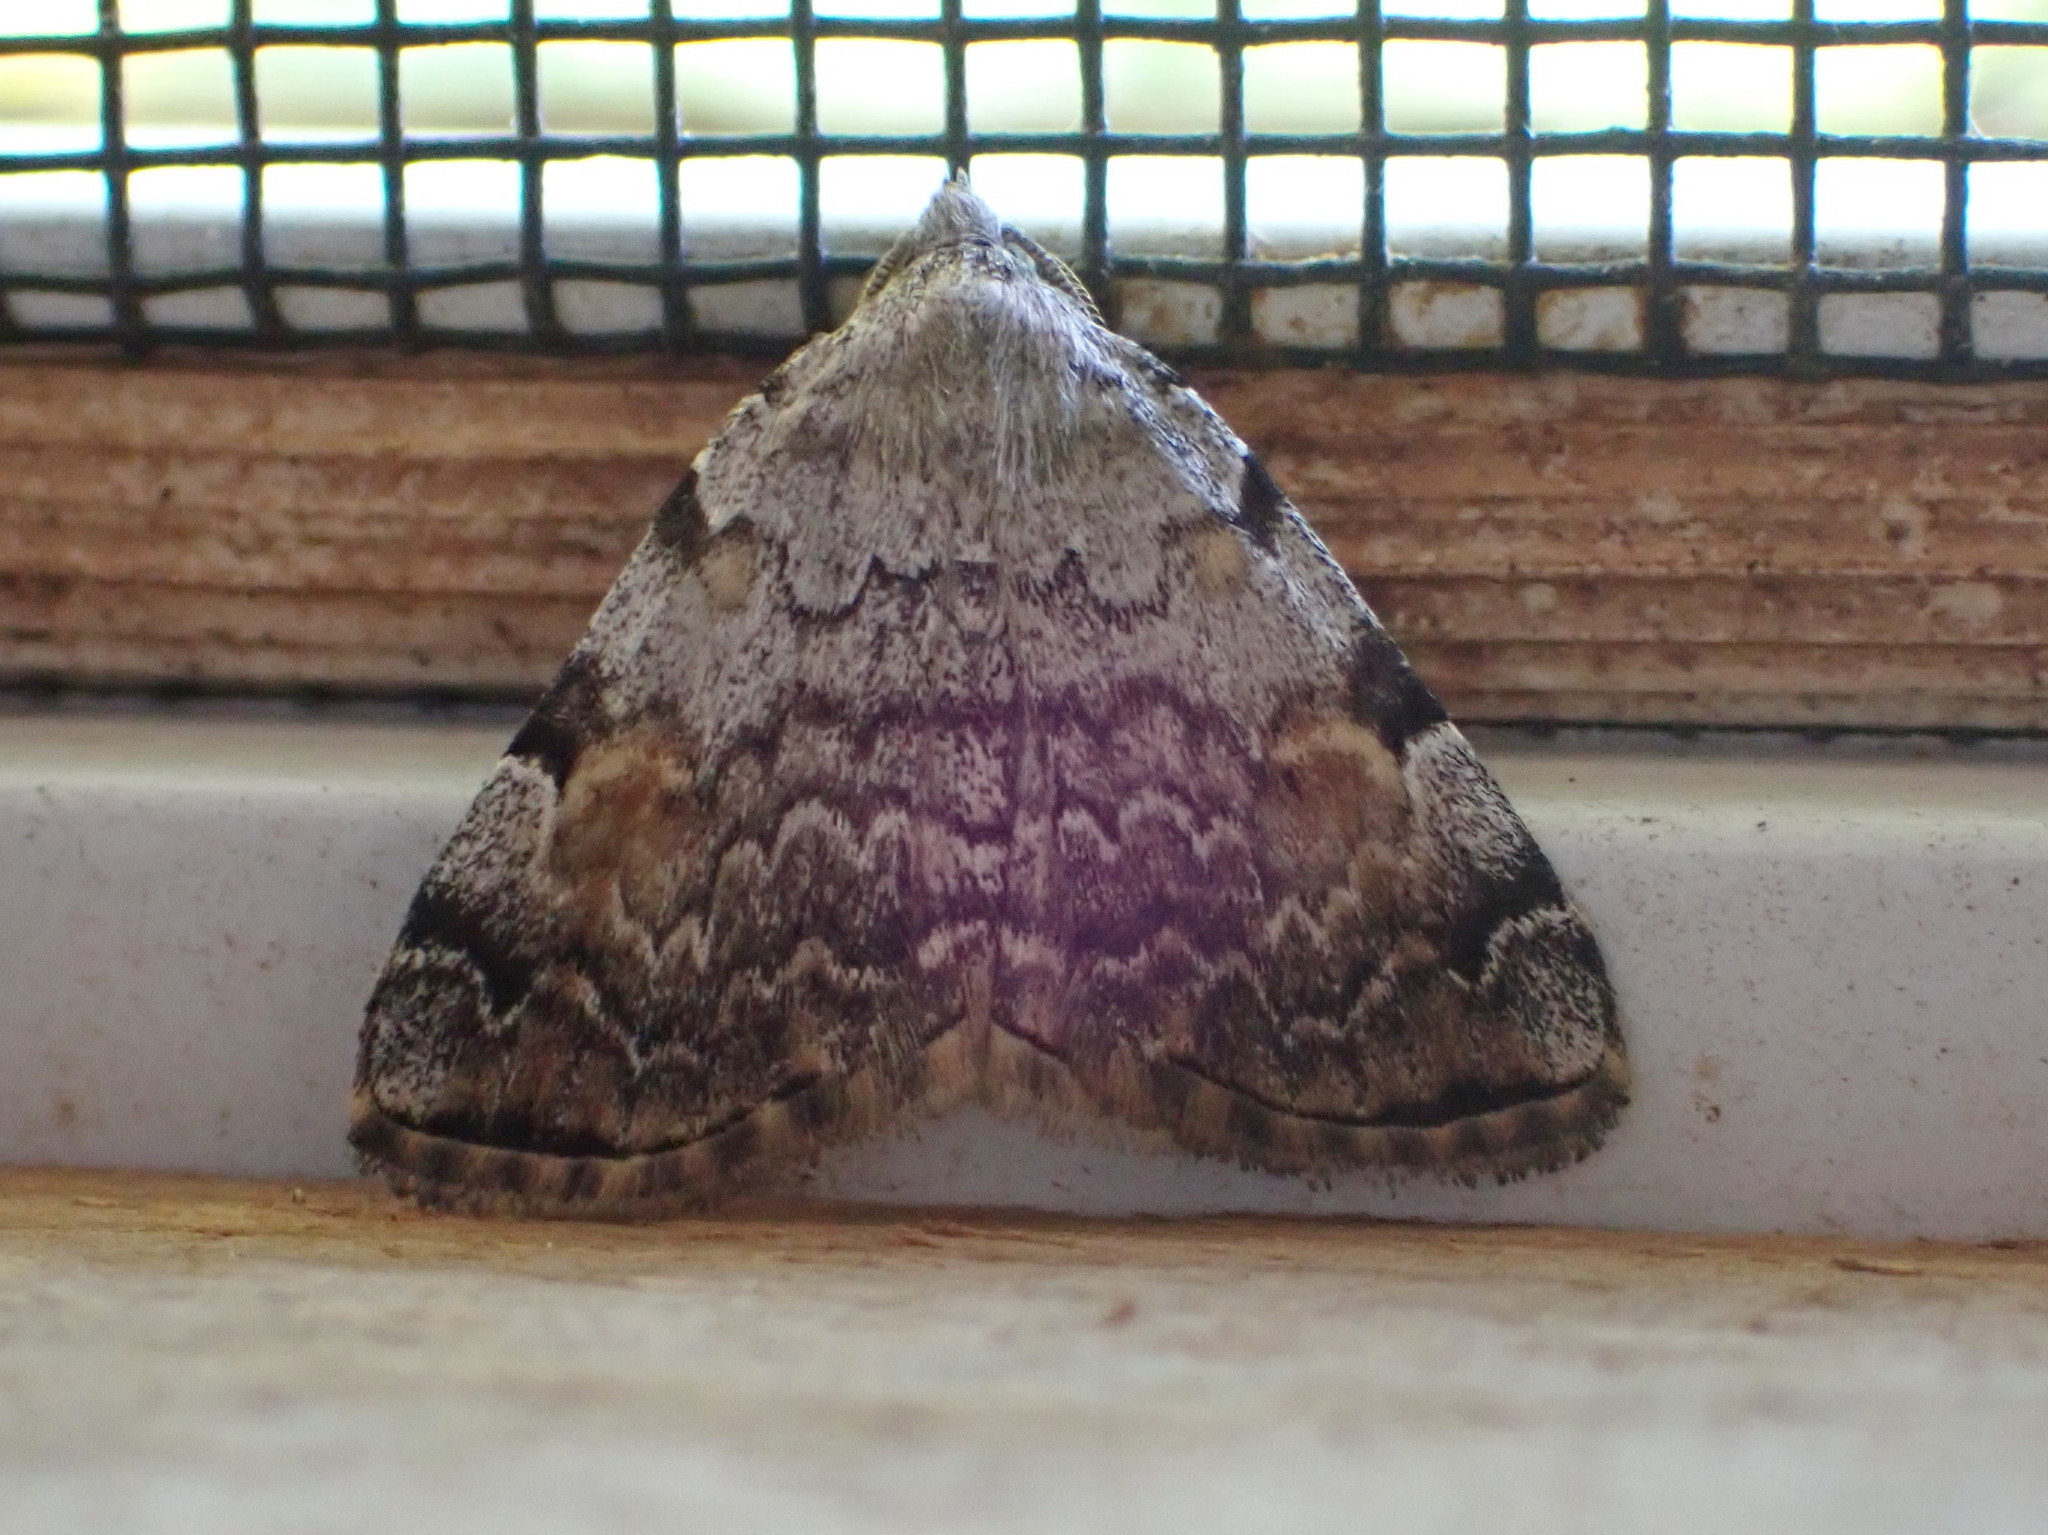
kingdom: Animalia
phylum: Arthropoda
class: Insecta
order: Lepidoptera
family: Erebidae
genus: Idia
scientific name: Idia americalis
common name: American idia moth
